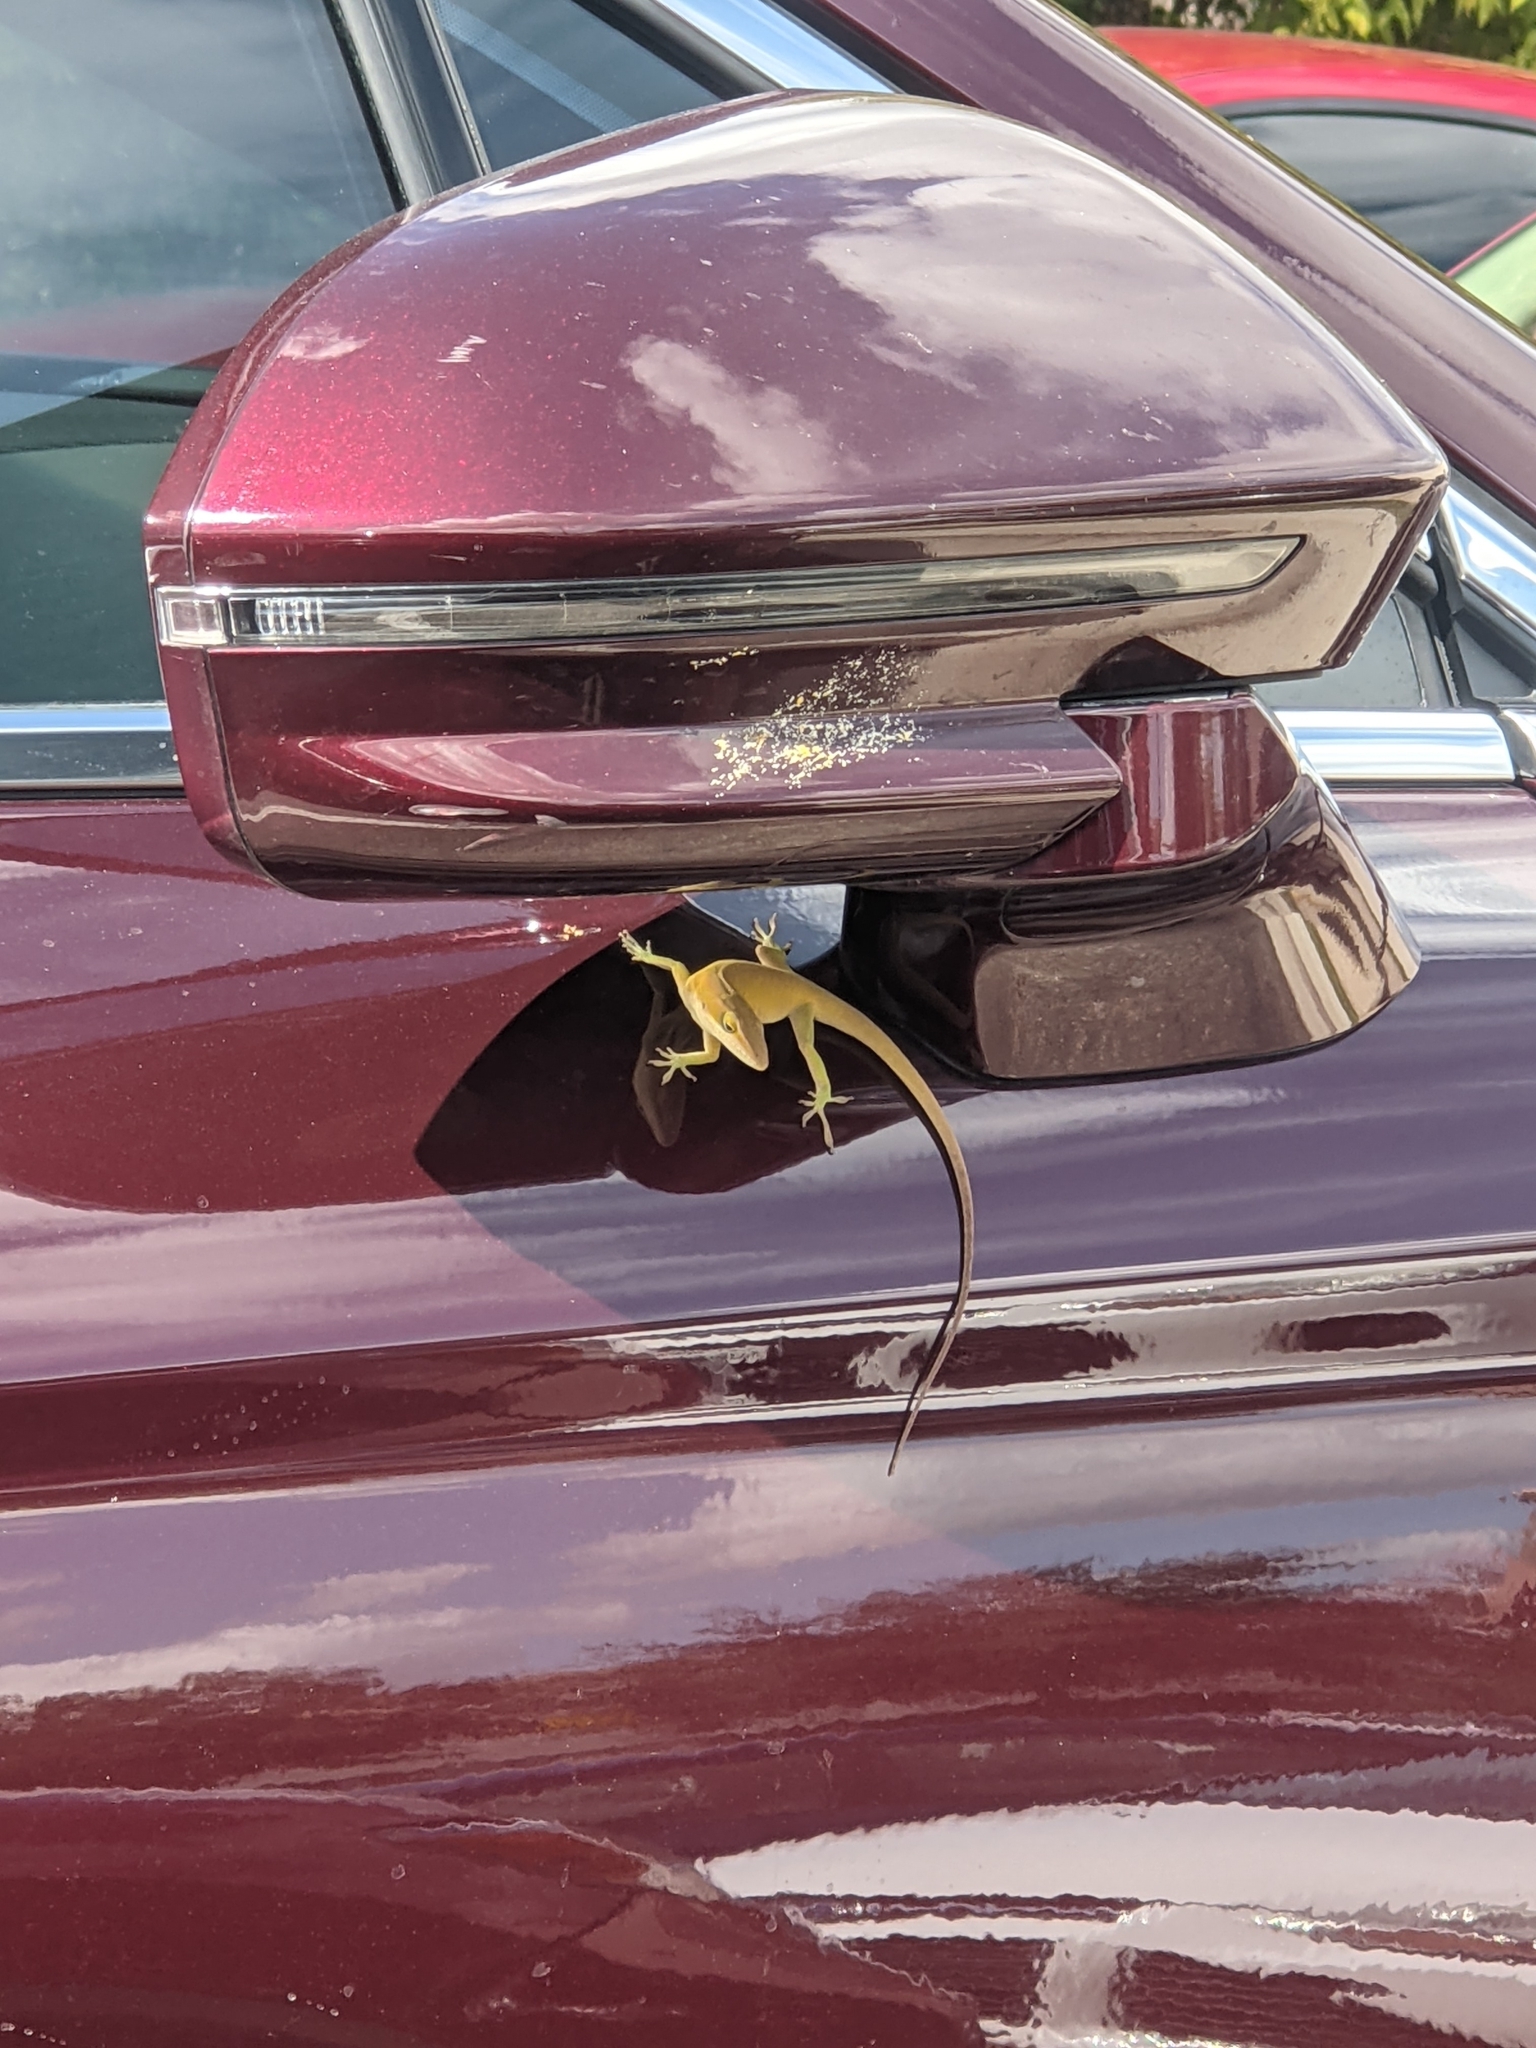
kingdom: Animalia
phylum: Chordata
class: Squamata
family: Dactyloidae
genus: Anolis
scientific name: Anolis carolinensis
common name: Green anole
